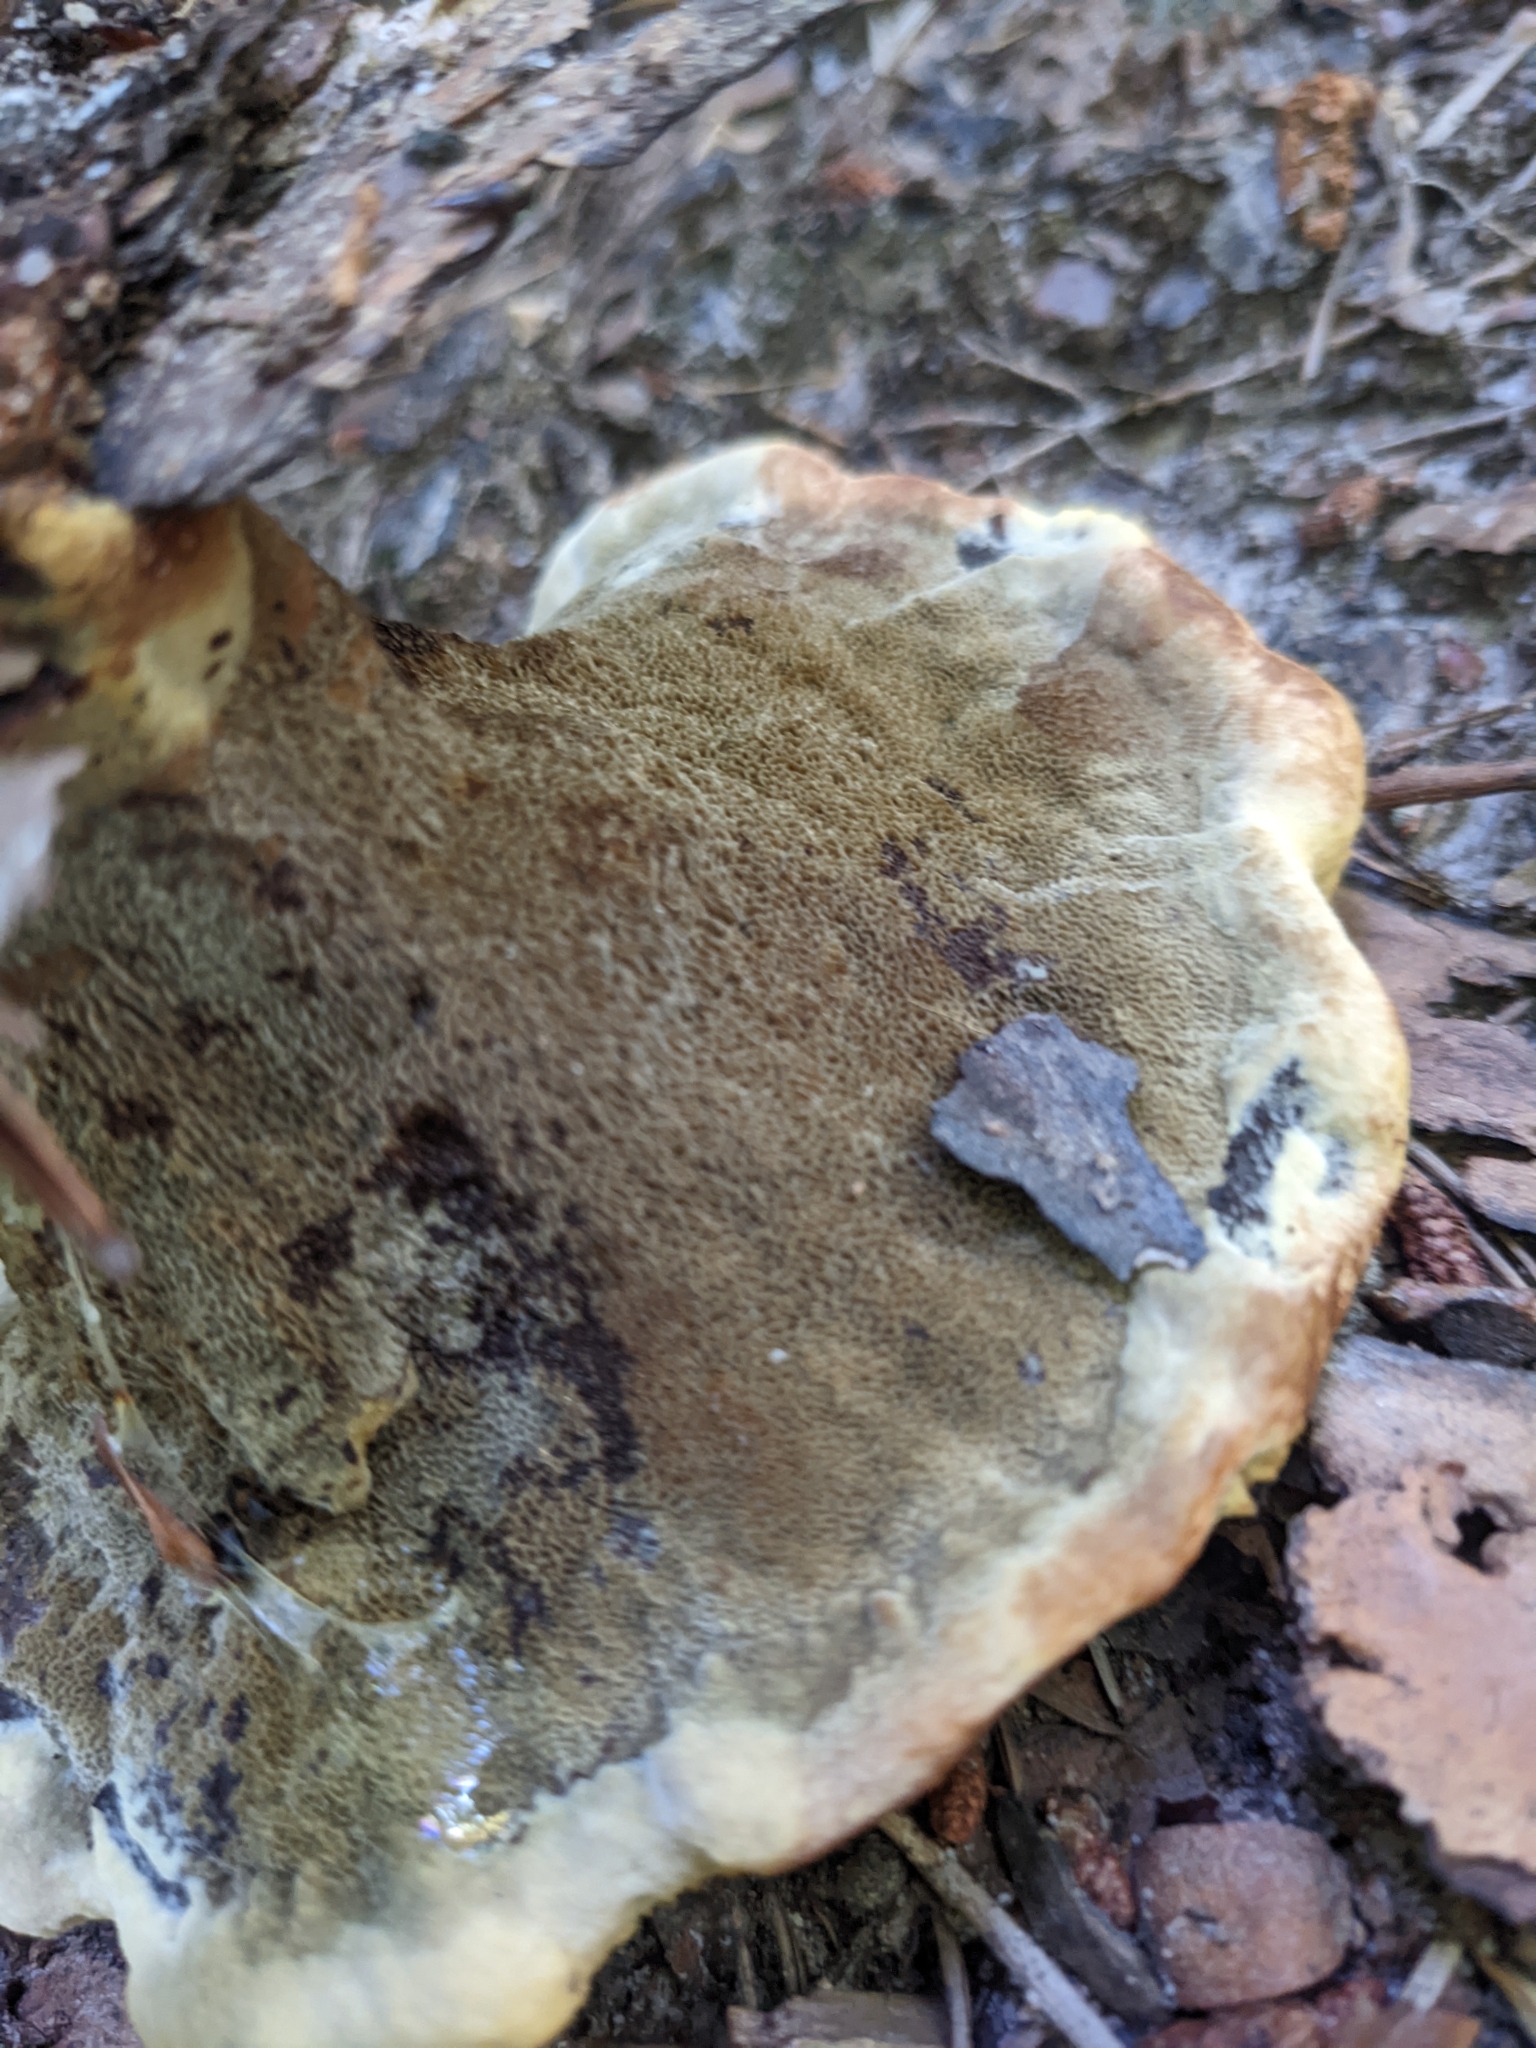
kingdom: Fungi
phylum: Basidiomycota
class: Agaricomycetes
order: Polyporales
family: Laetiporaceae
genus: Phaeolus
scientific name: Phaeolus schweinitzii
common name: Dyer's mazegill
